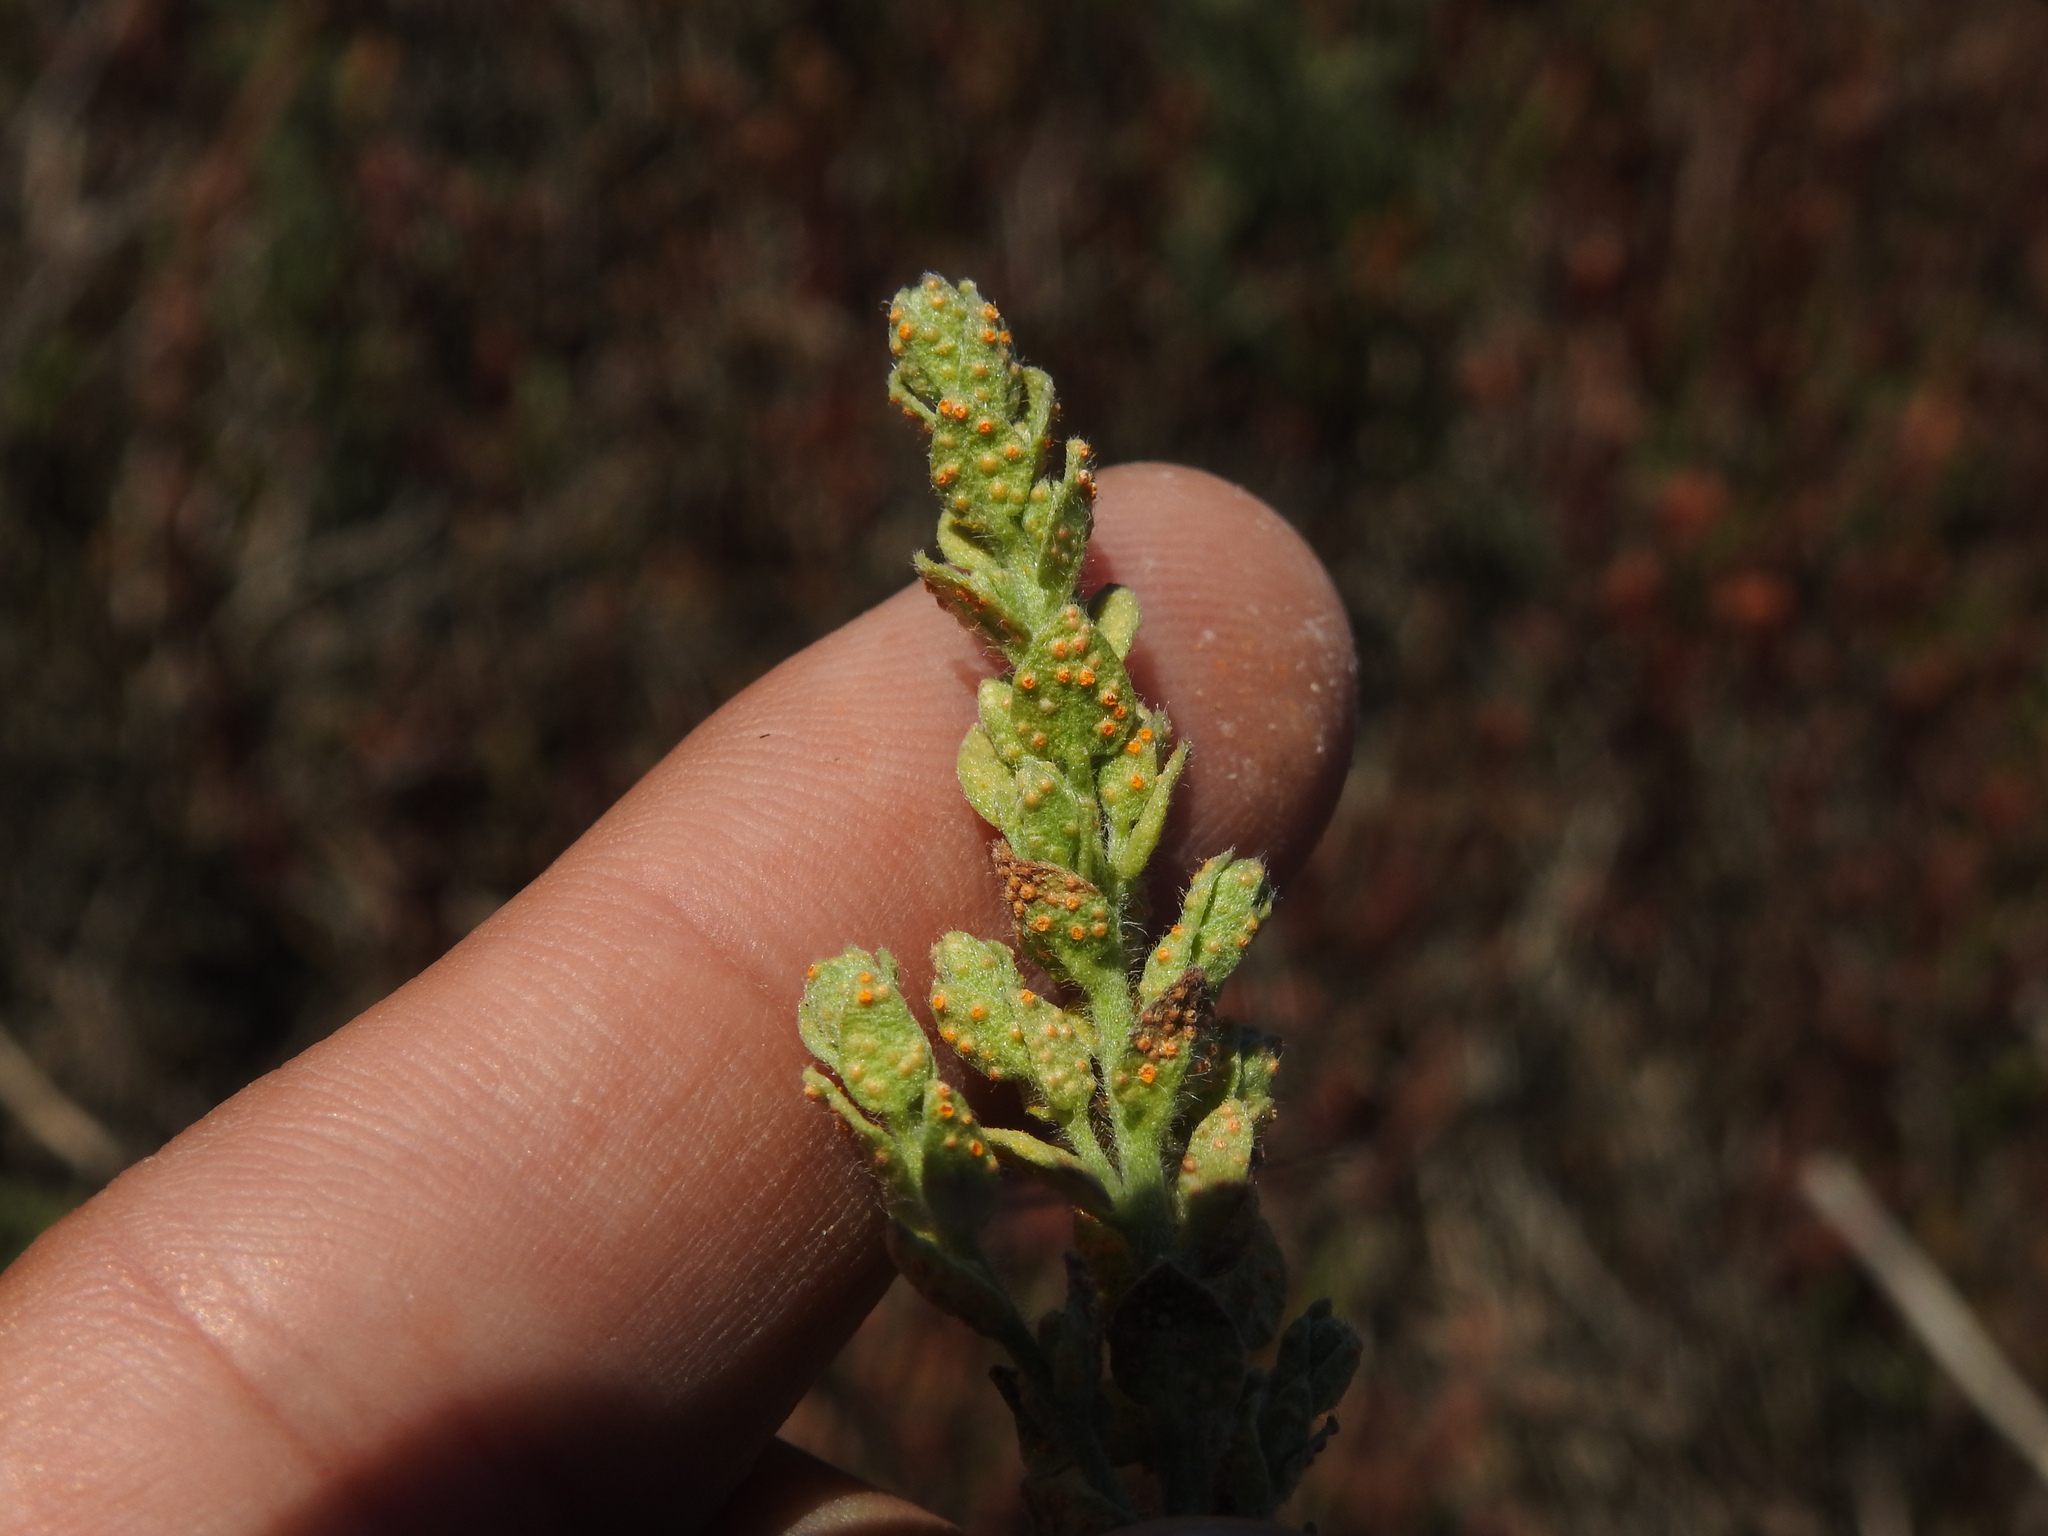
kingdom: Fungi
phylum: Basidiomycota
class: Pucciniomycetes
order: Pucciniales
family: Pucciniaceae
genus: Puccinia
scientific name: Puccinia cressae
